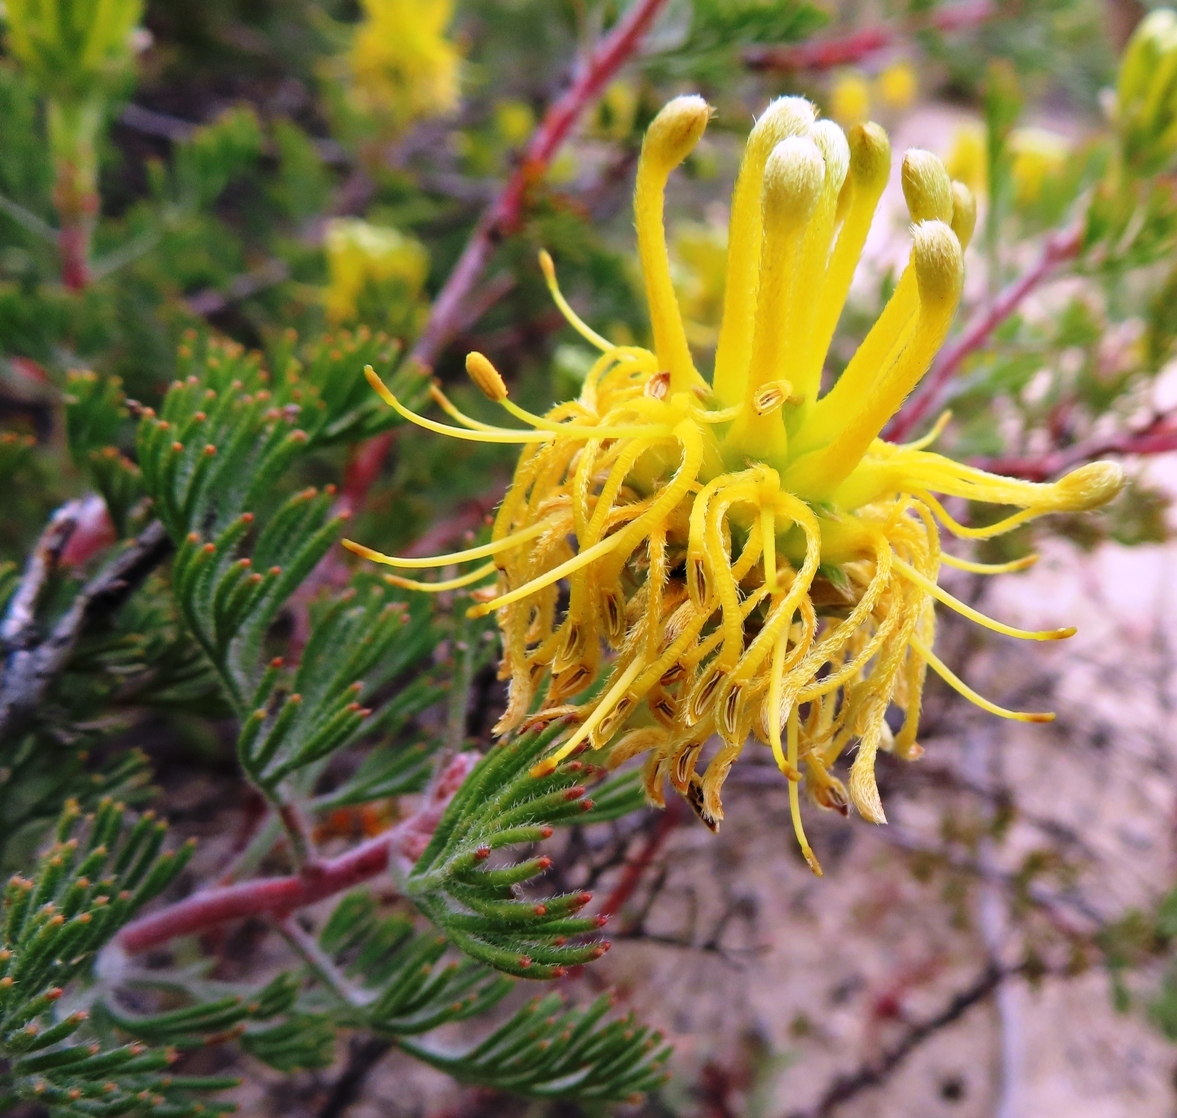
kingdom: Plantae
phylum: Tracheophyta
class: Magnoliopsida
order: Proteales
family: Proteaceae
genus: Serruria
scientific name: Serruria flava
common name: Spiderhead
